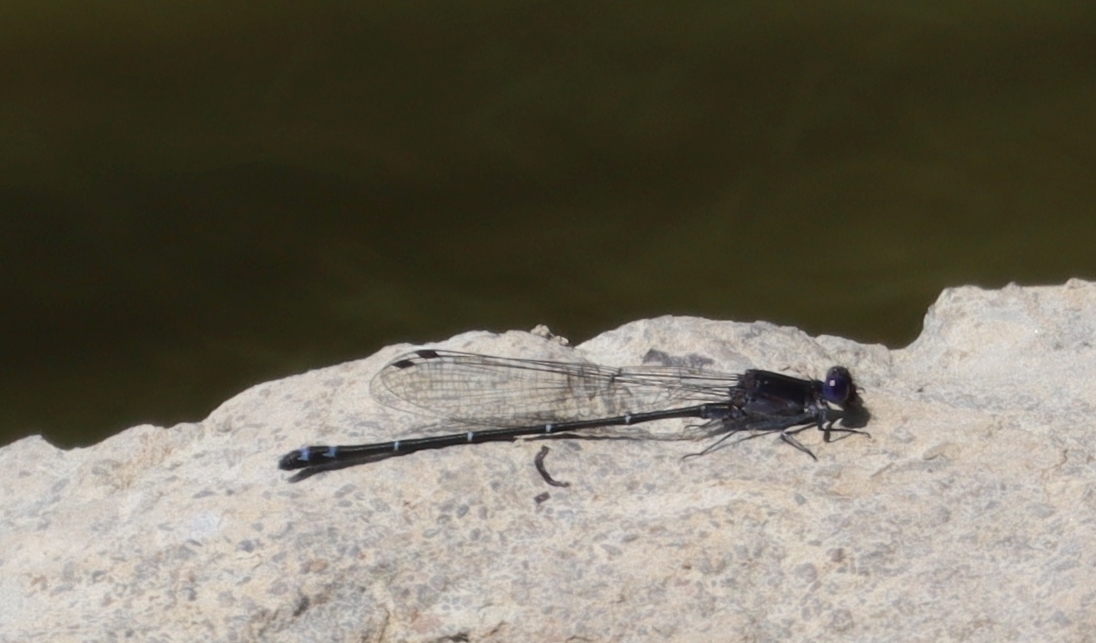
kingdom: Animalia
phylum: Arthropoda
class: Insecta
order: Odonata
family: Coenagrionidae
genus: Argia
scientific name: Argia translata
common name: Dusky dancer
